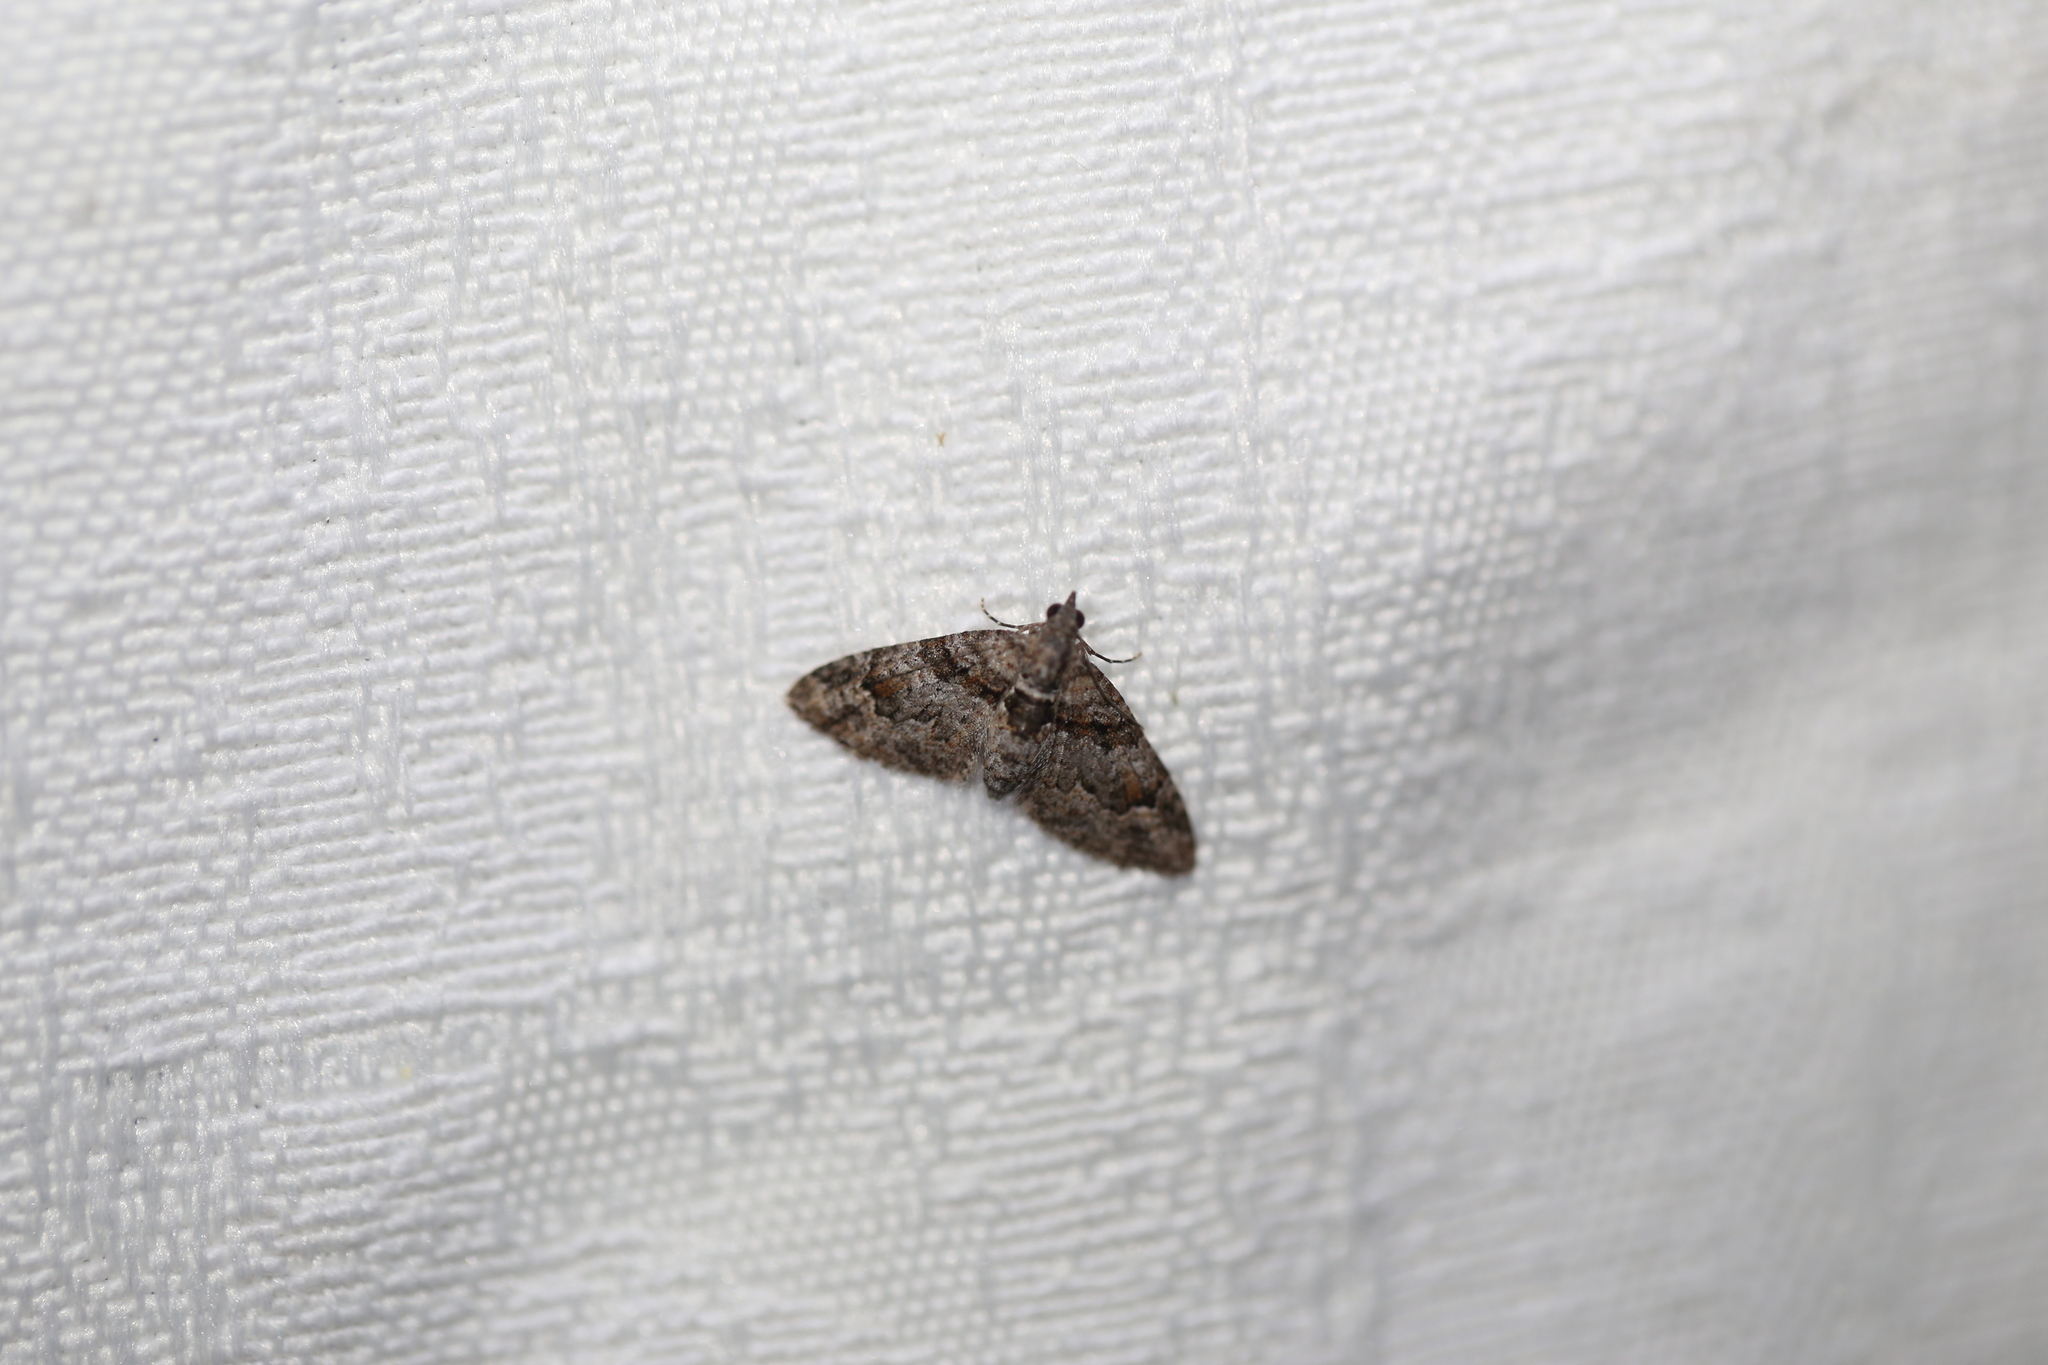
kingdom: Animalia
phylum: Arthropoda
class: Insecta
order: Lepidoptera
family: Geometridae
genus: Phrissogonus
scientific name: Phrissogonus laticostata
